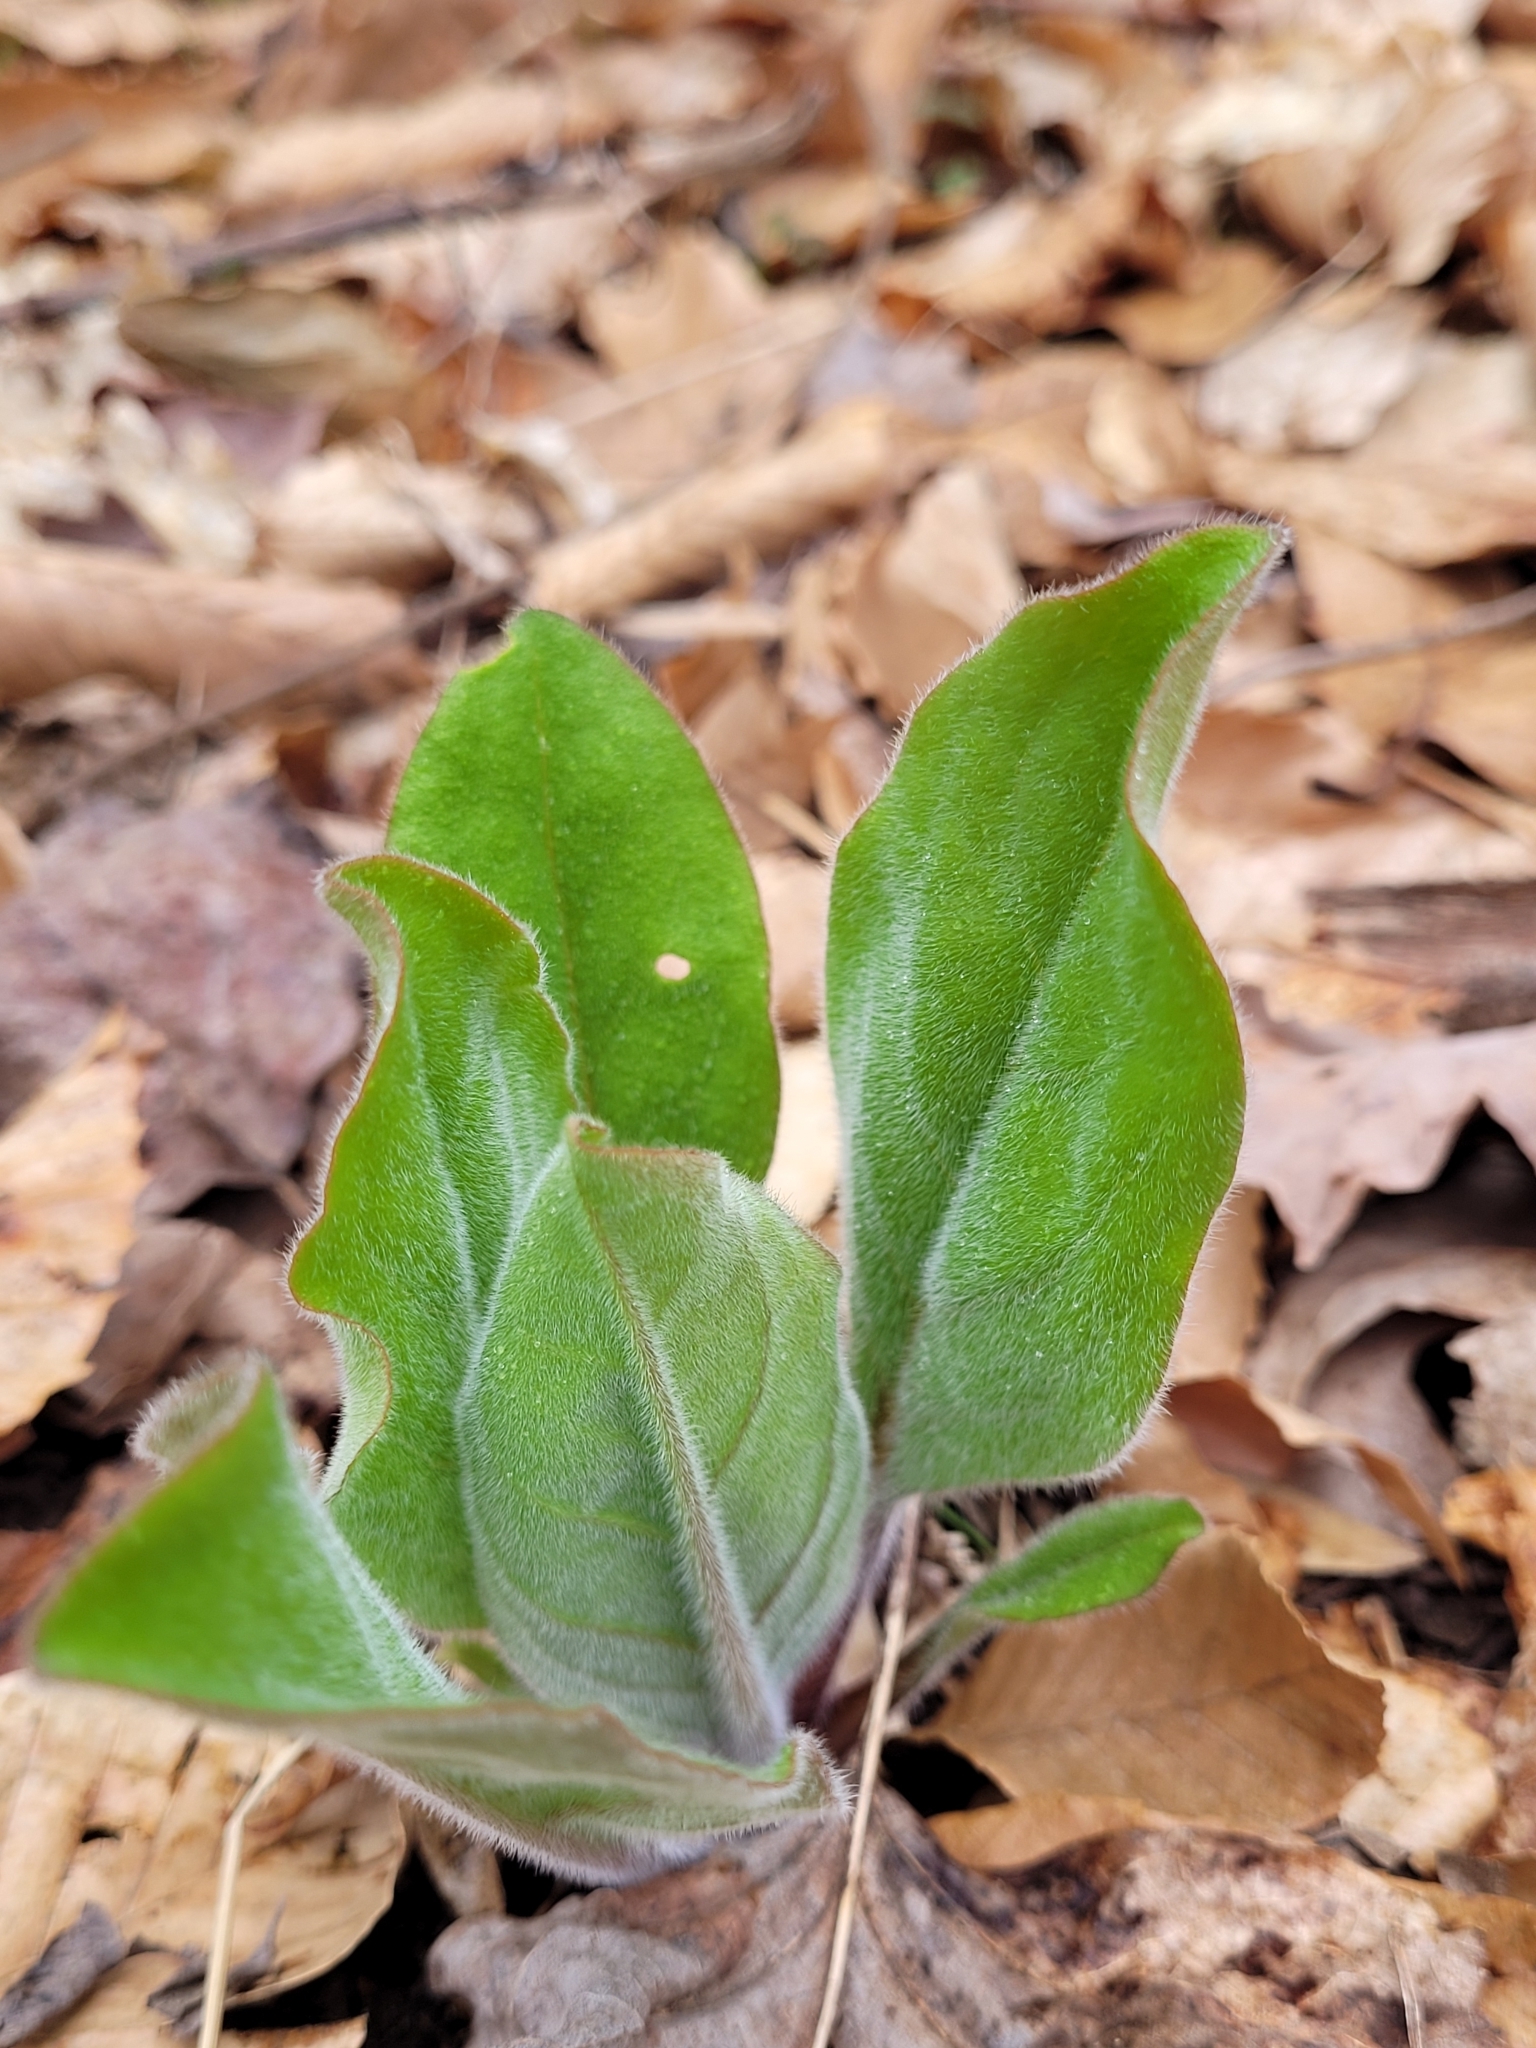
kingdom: Plantae
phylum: Tracheophyta
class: Magnoliopsida
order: Boraginales
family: Boraginaceae
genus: Andersonglossum
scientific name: Andersonglossum virginianum
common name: Wild comfrey
